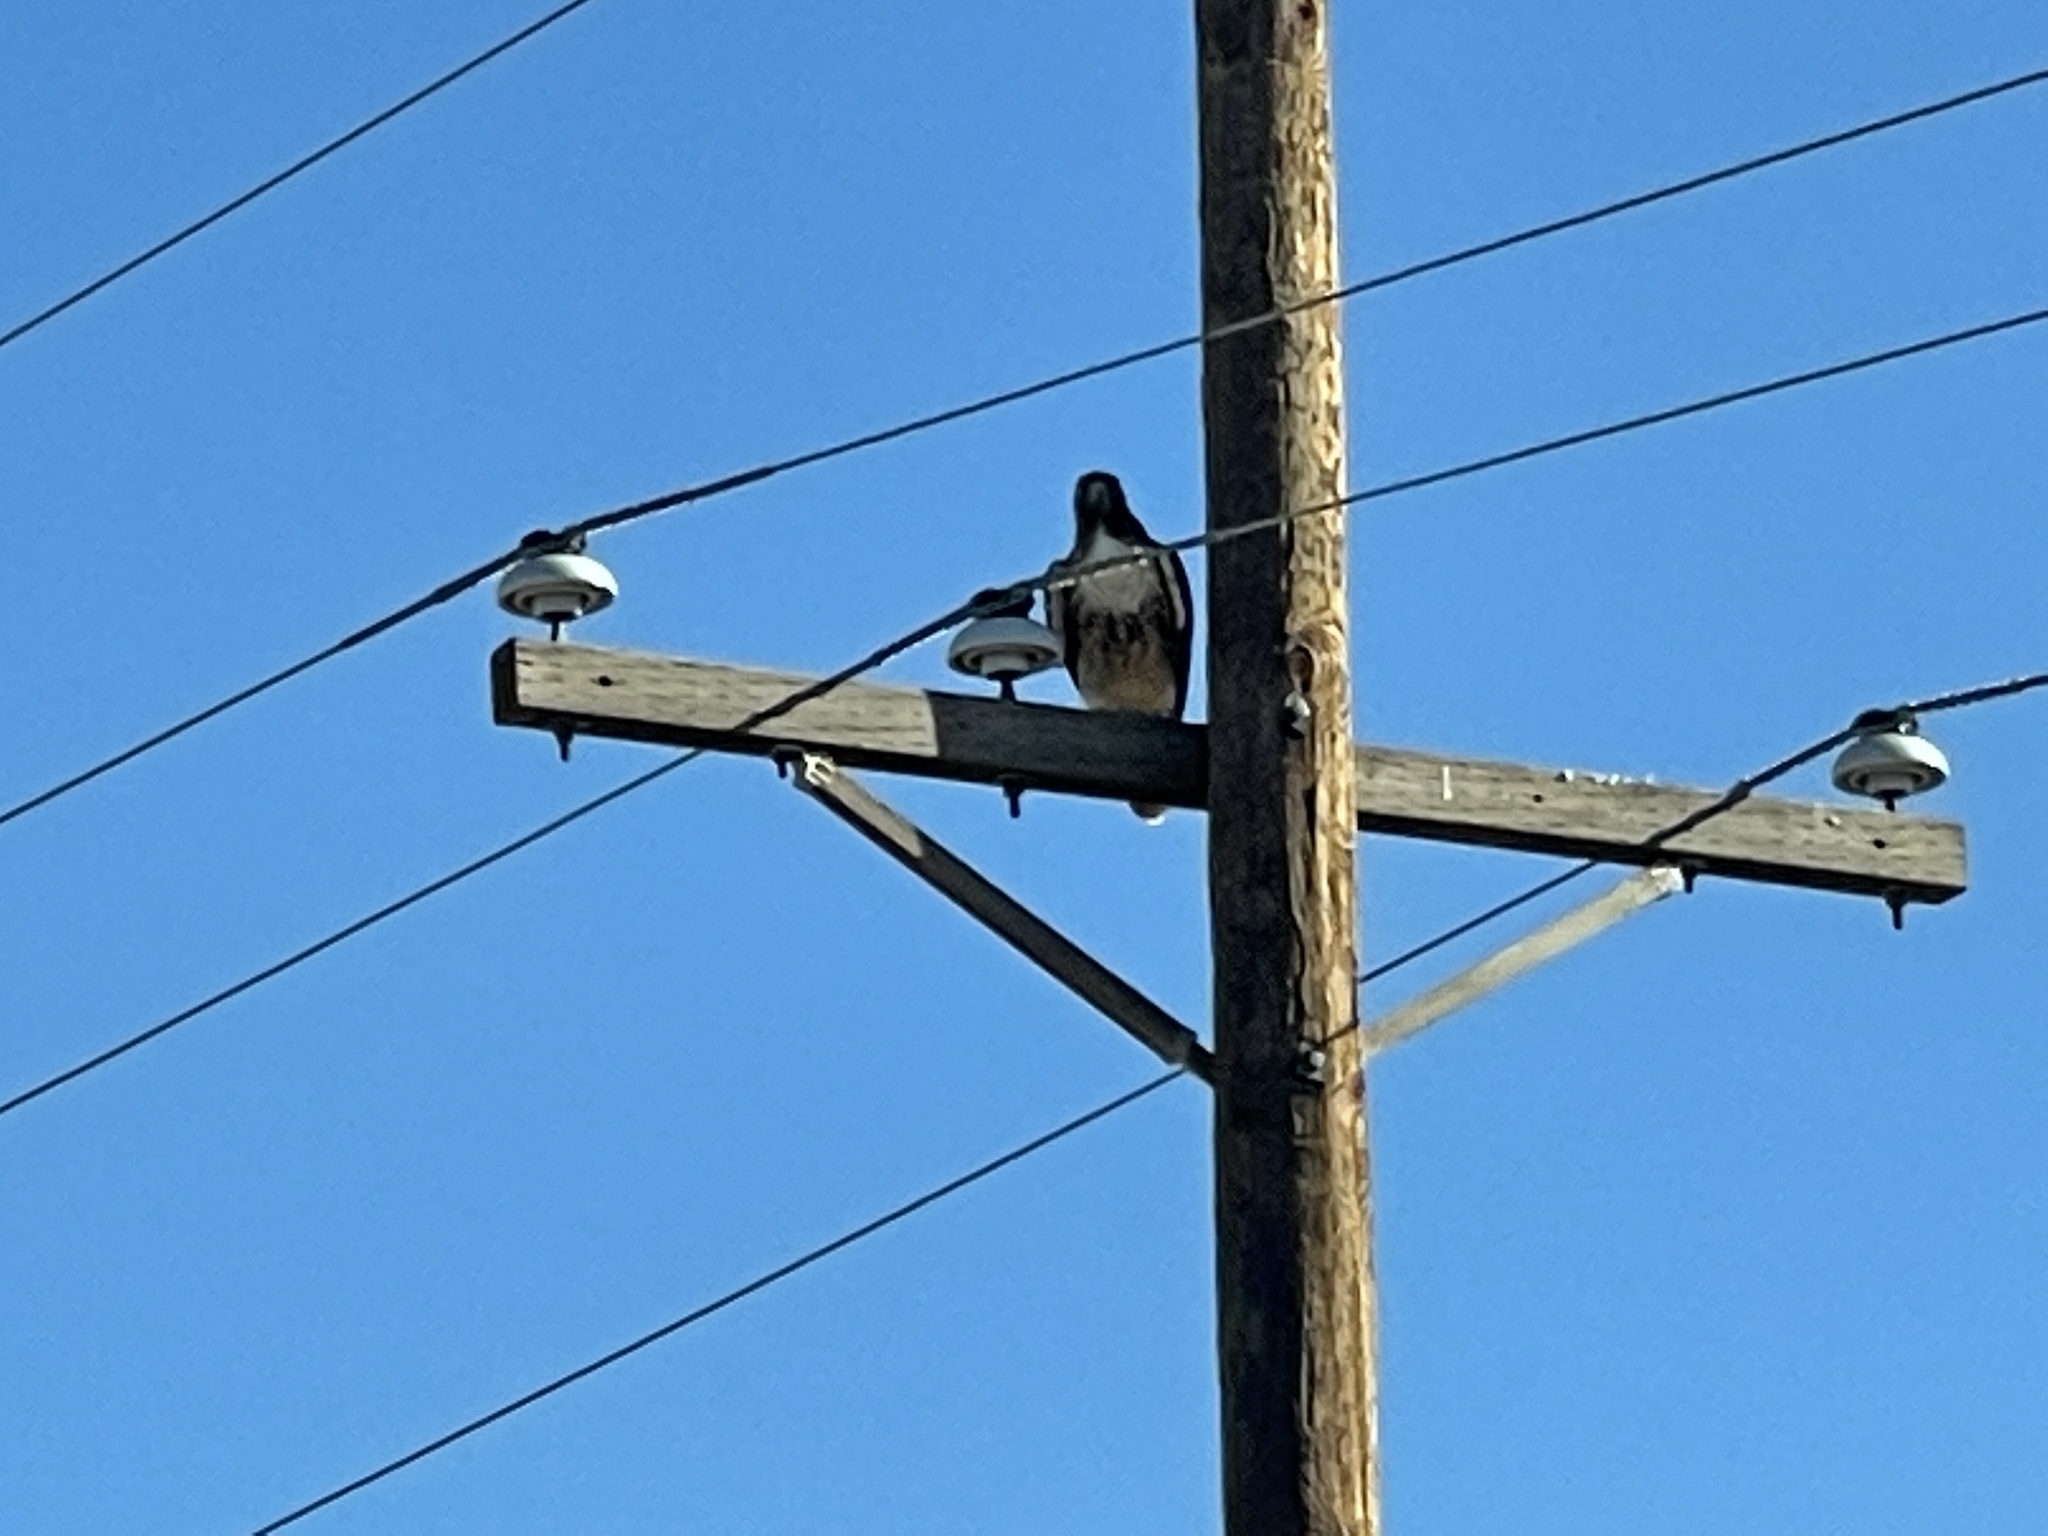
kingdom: Animalia
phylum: Chordata
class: Aves
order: Accipitriformes
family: Accipitridae
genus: Buteo
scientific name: Buteo jamaicensis
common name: Red-tailed hawk
